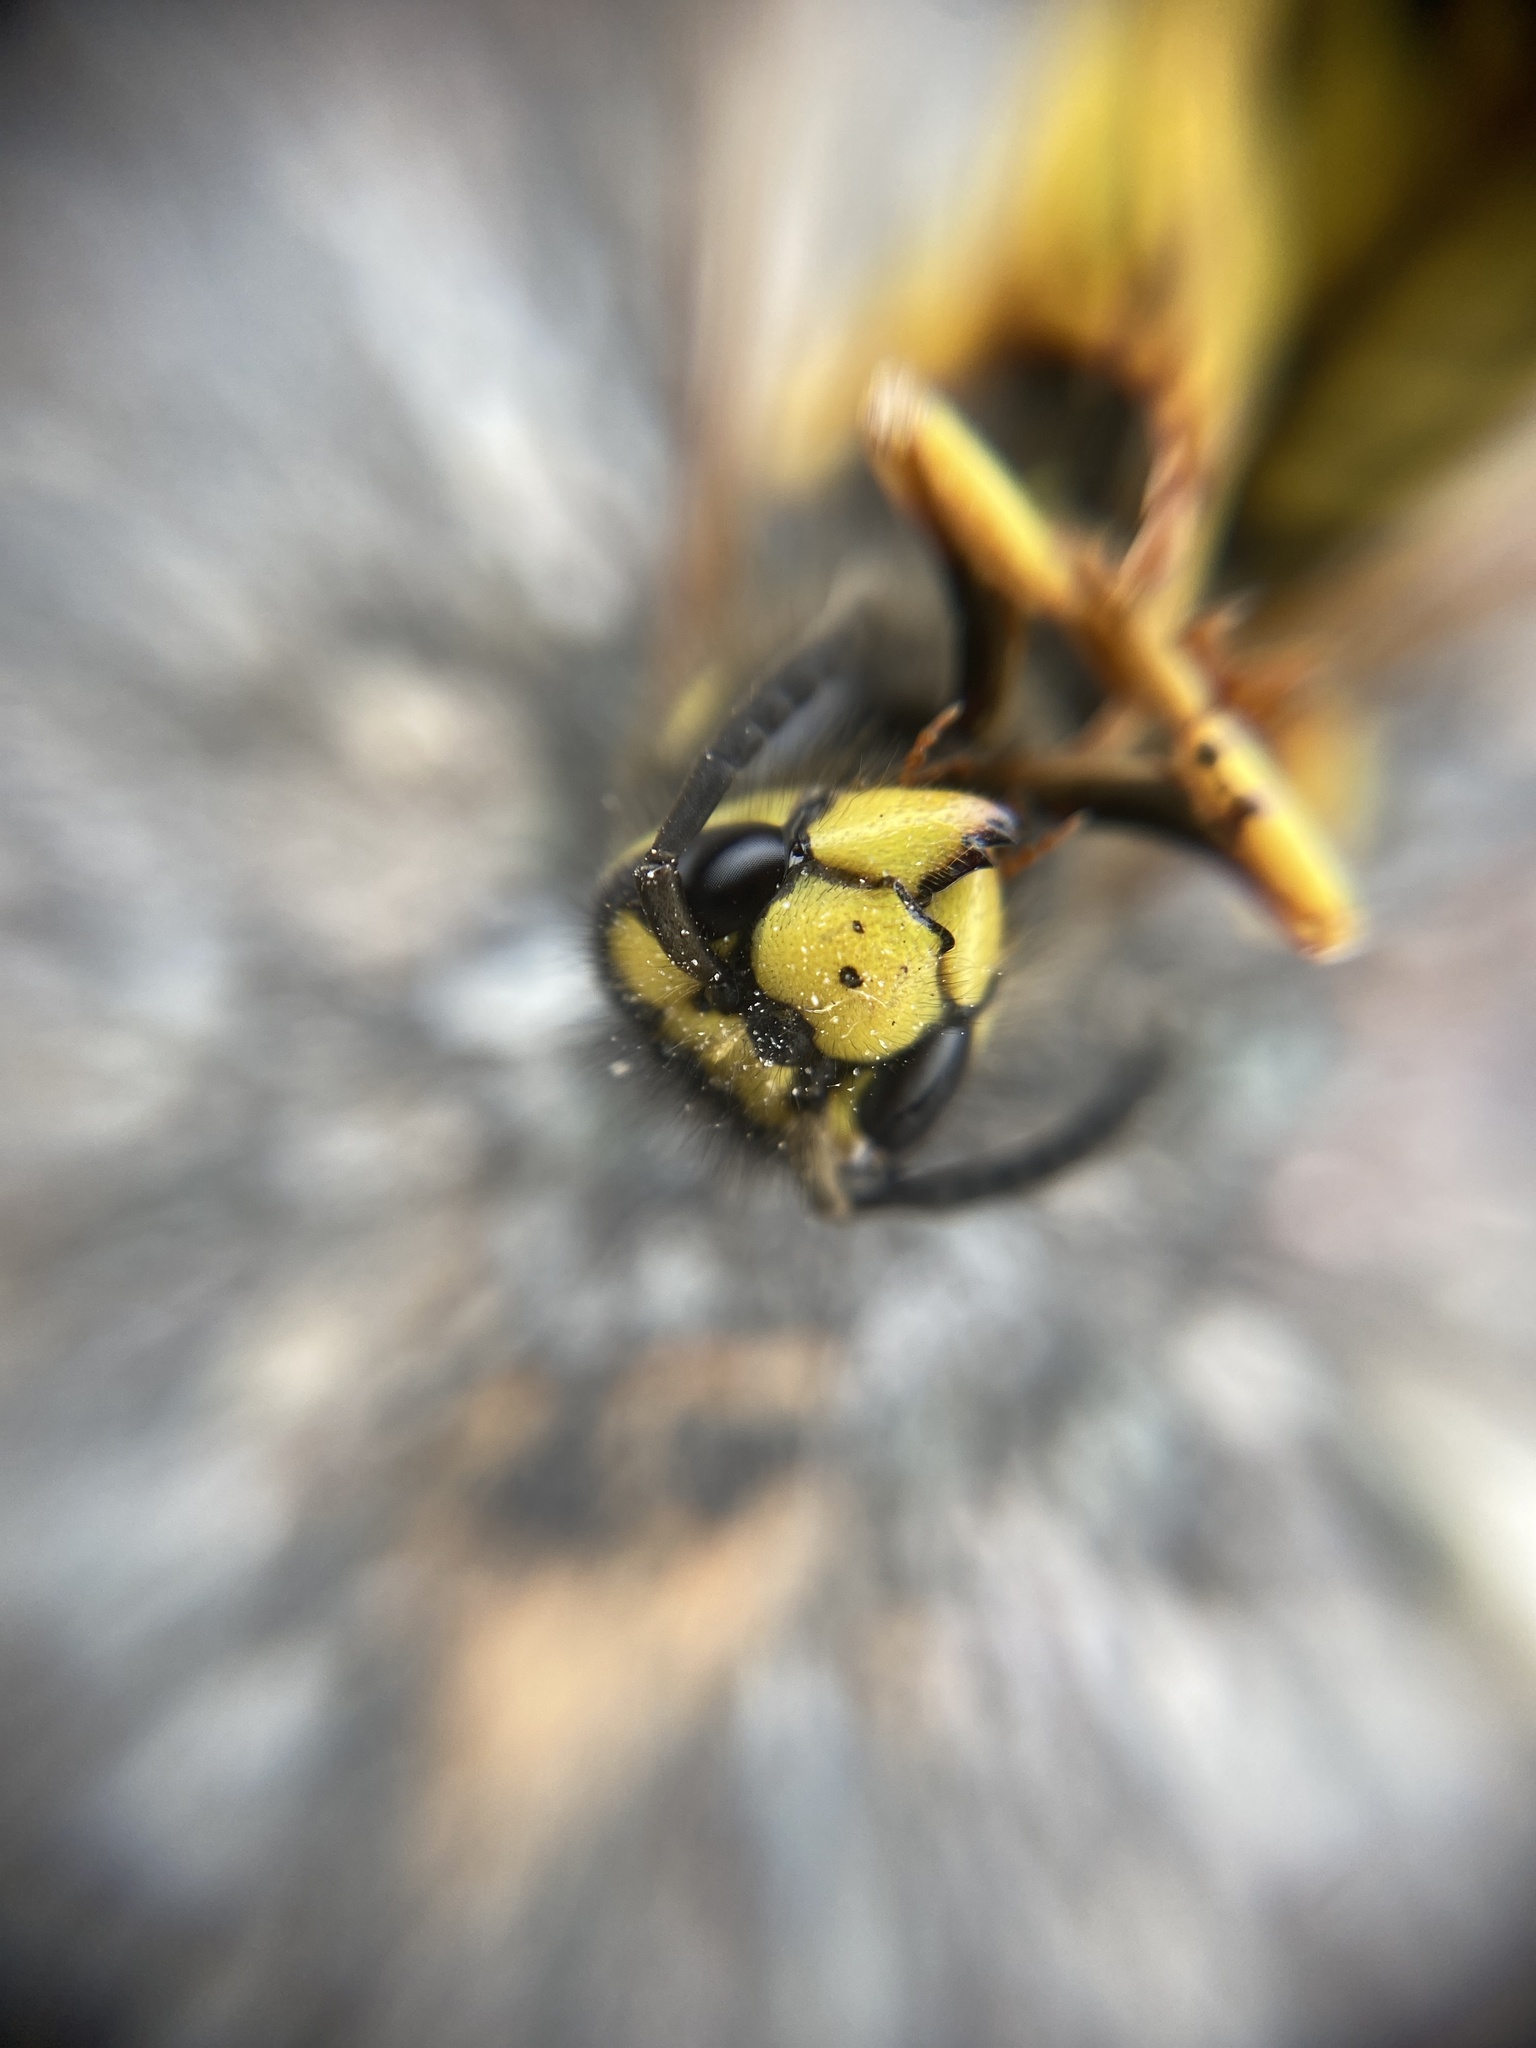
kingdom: Animalia
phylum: Arthropoda
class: Insecta
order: Hymenoptera
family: Vespidae
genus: Vespula
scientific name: Vespula germanica
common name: German wasp
